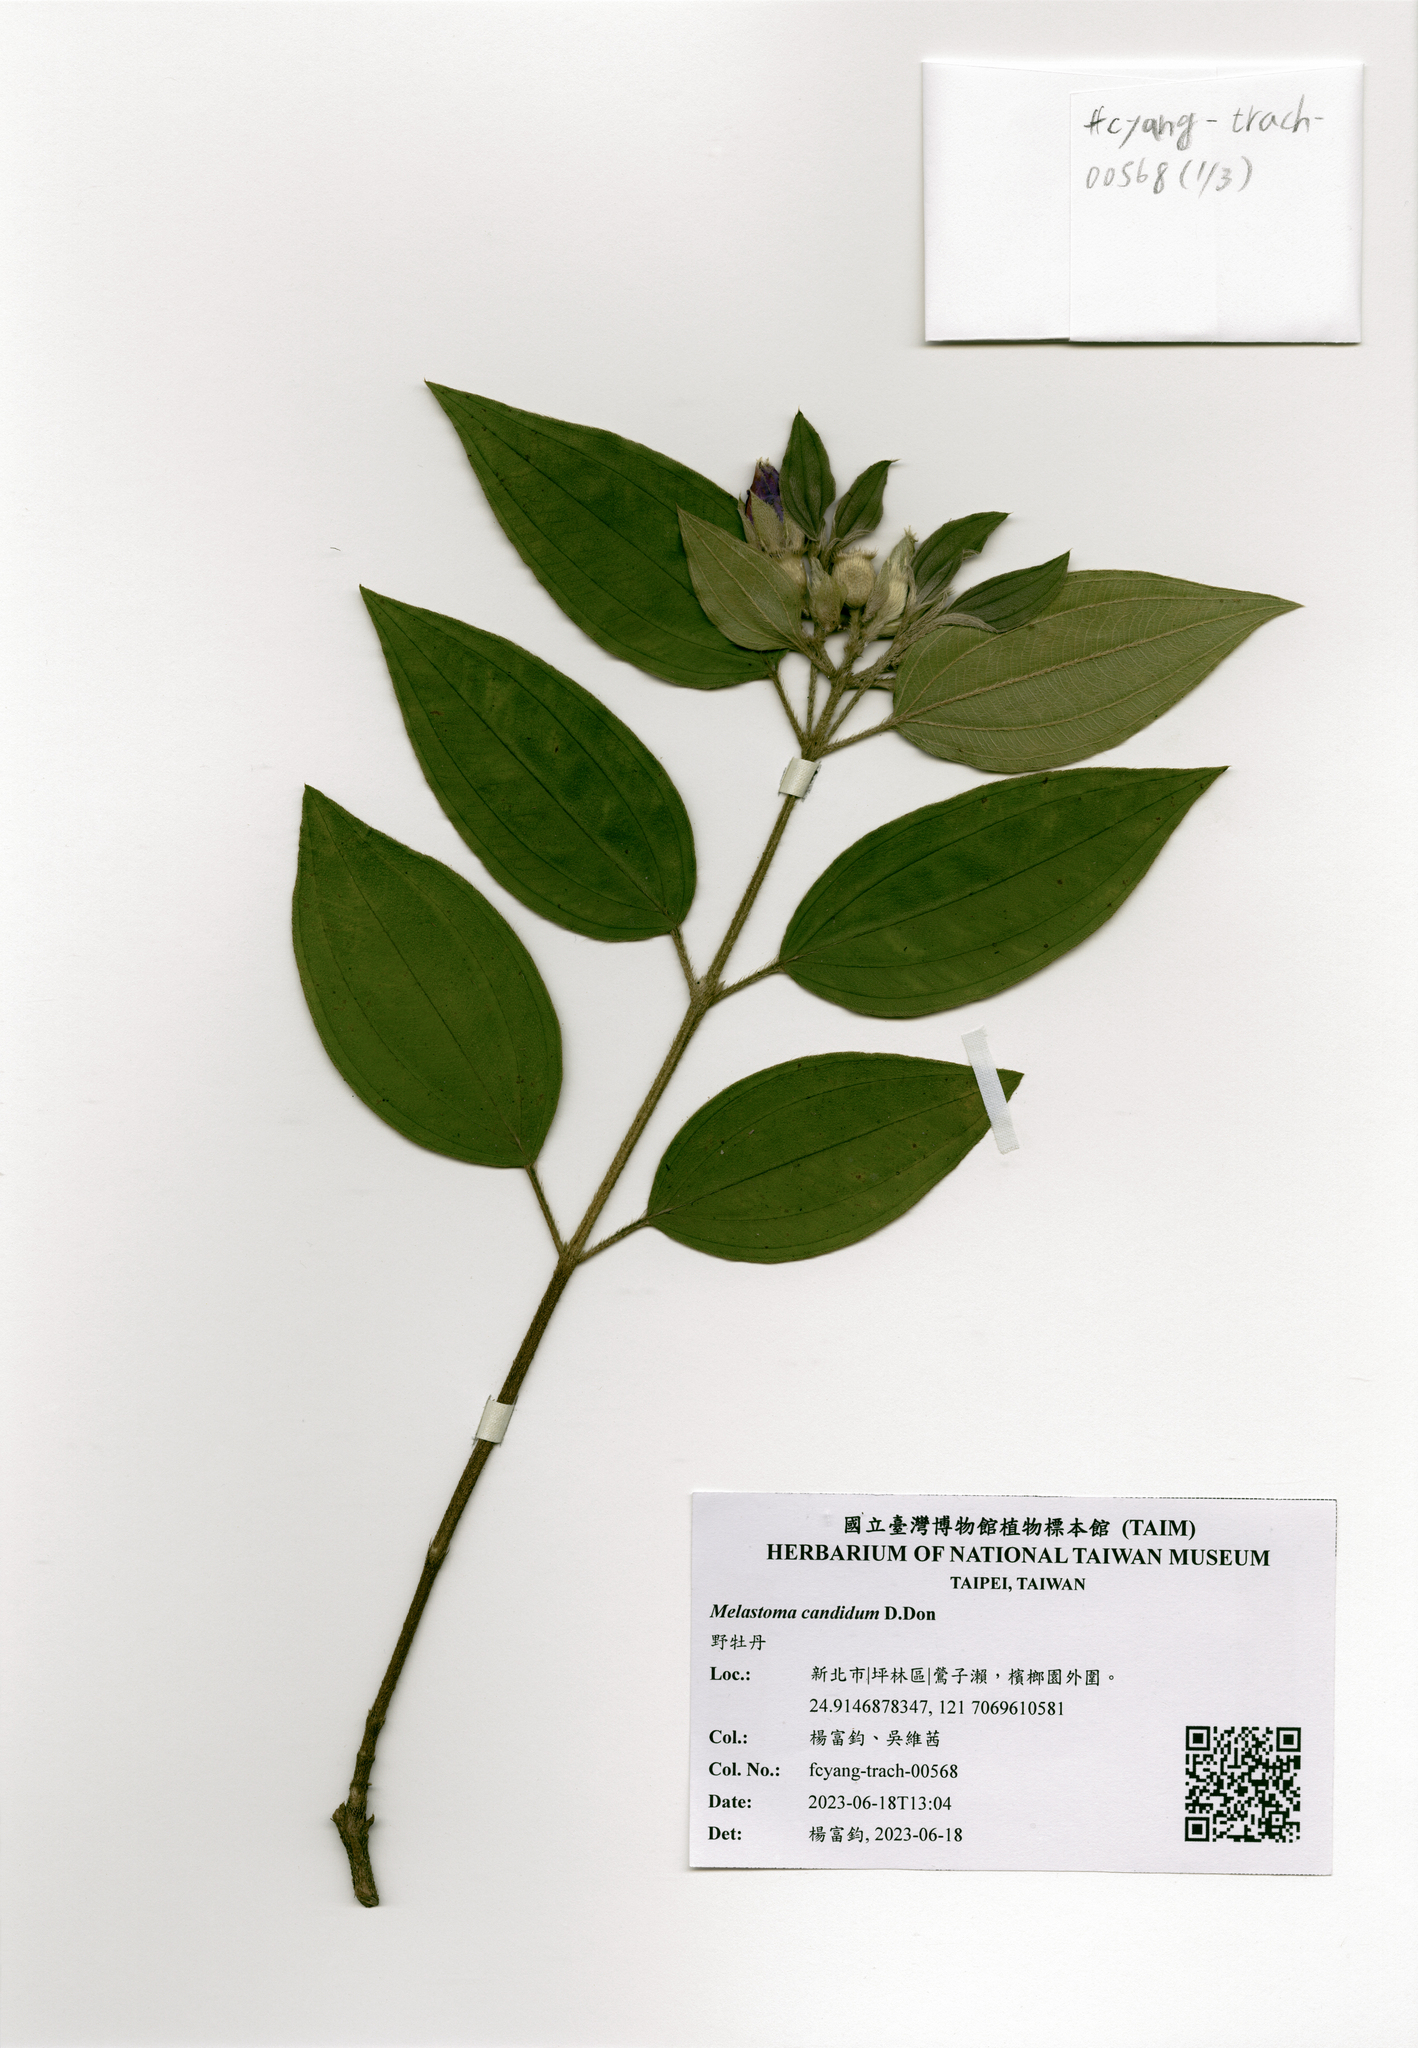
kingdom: Plantae
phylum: Tracheophyta
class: Magnoliopsida
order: Myrtales
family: Melastomataceae
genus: Melastoma
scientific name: Melastoma malabathricum
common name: Indian-rhododendron
